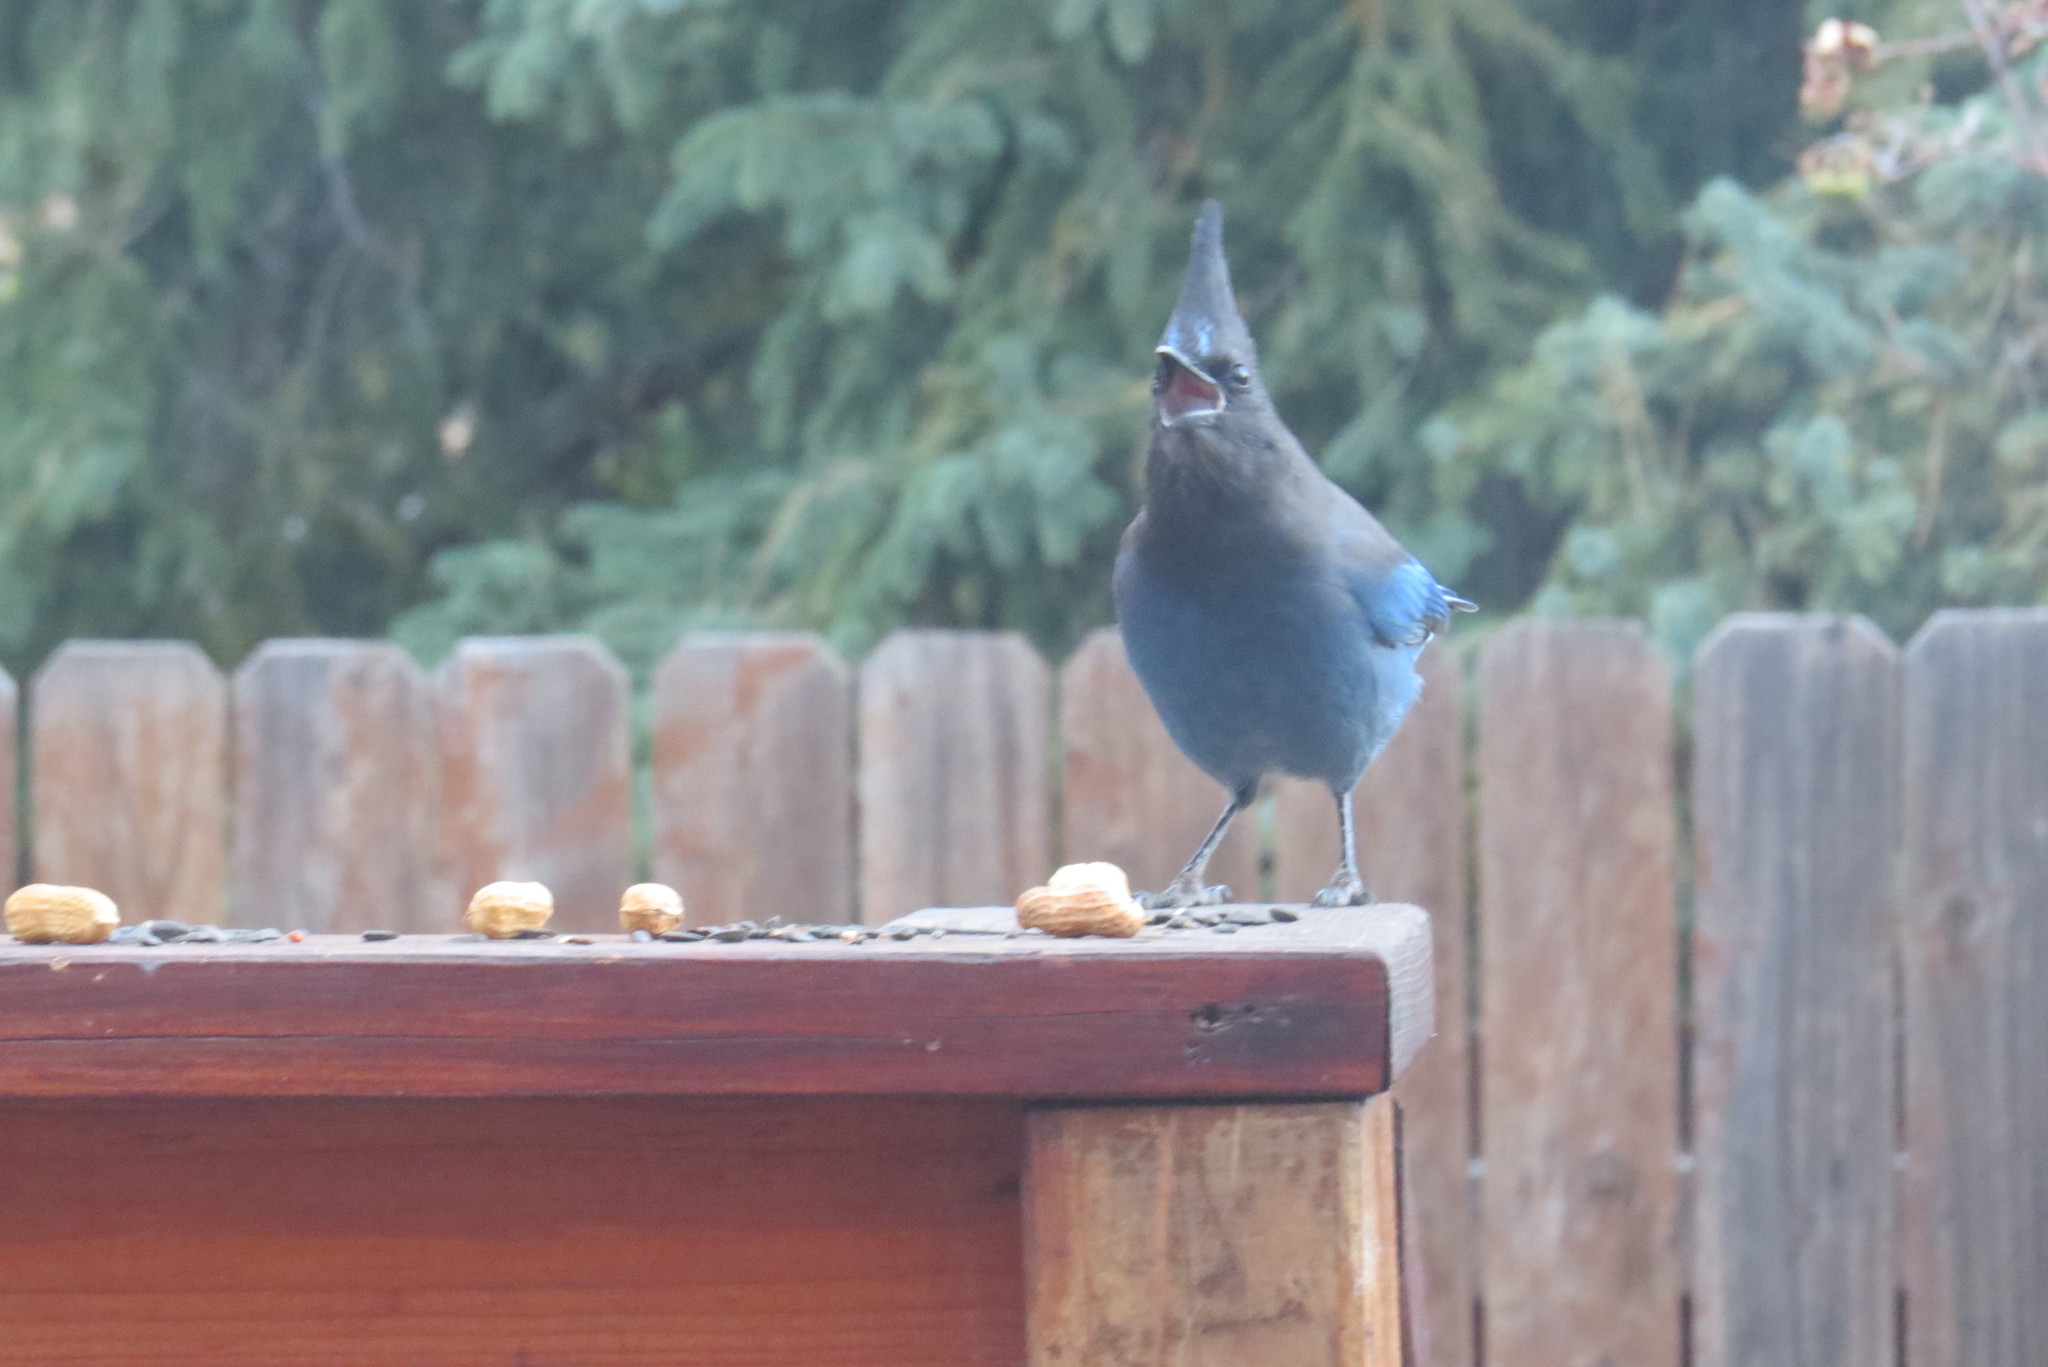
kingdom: Animalia
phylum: Chordata
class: Aves
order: Passeriformes
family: Corvidae
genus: Cyanocitta
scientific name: Cyanocitta stelleri
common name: Steller's jay
